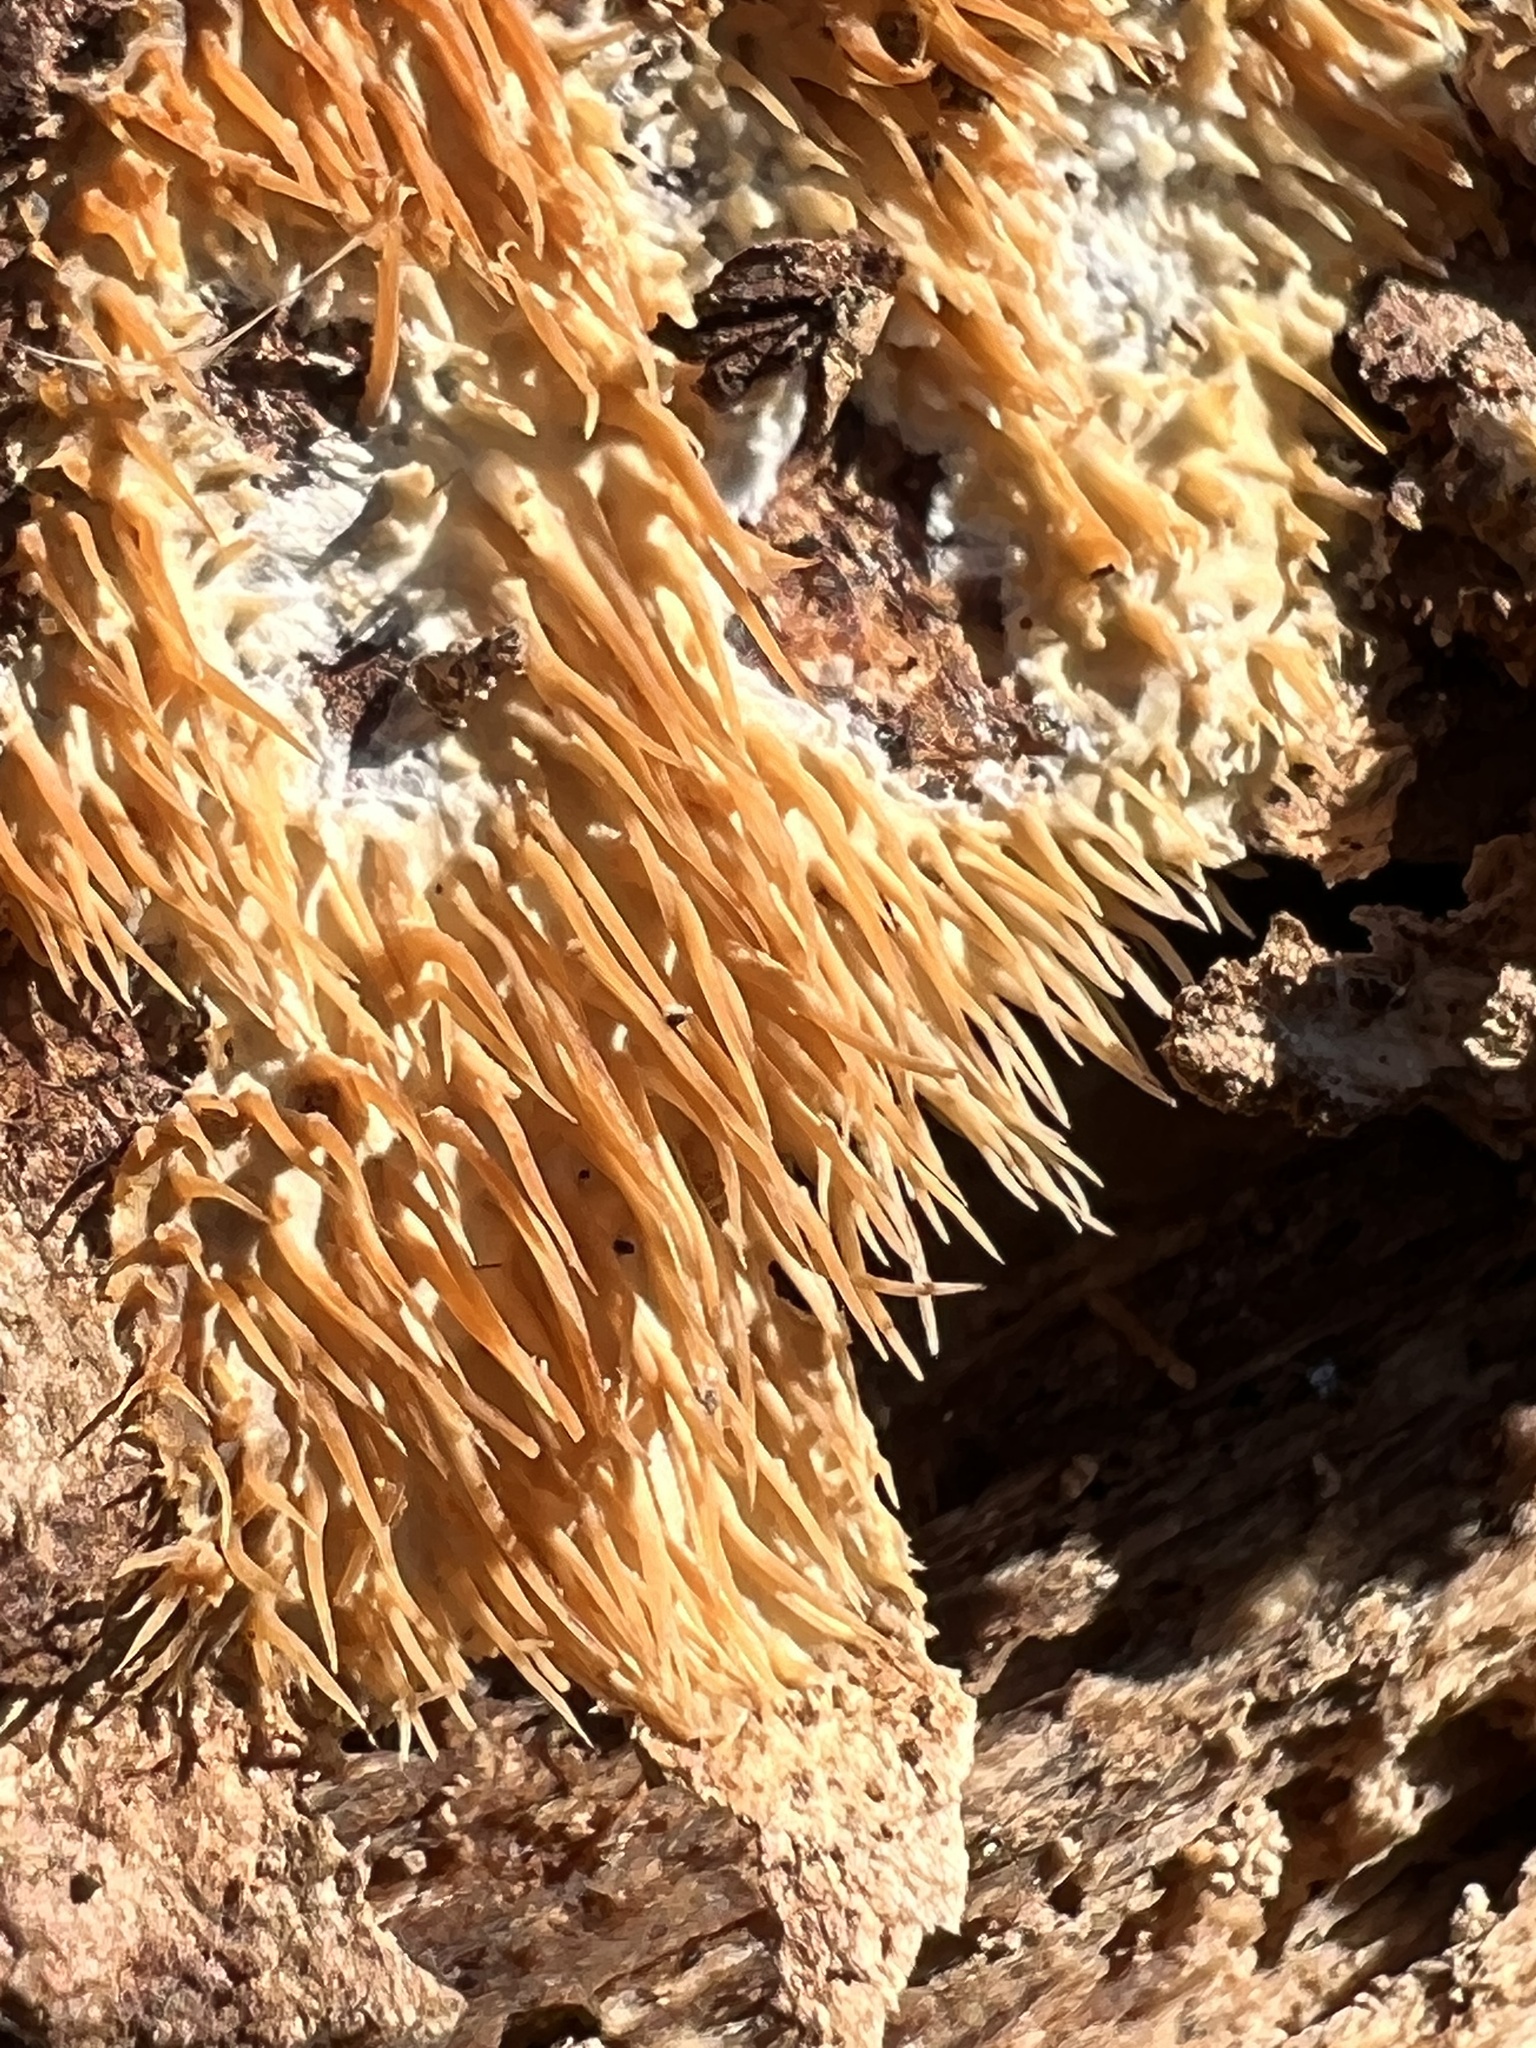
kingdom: Fungi
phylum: Basidiomycota
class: Agaricomycetes
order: Agaricales
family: Radulomycetaceae
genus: Radulomyces
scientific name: Radulomyces copelandii
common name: Asian beauty
